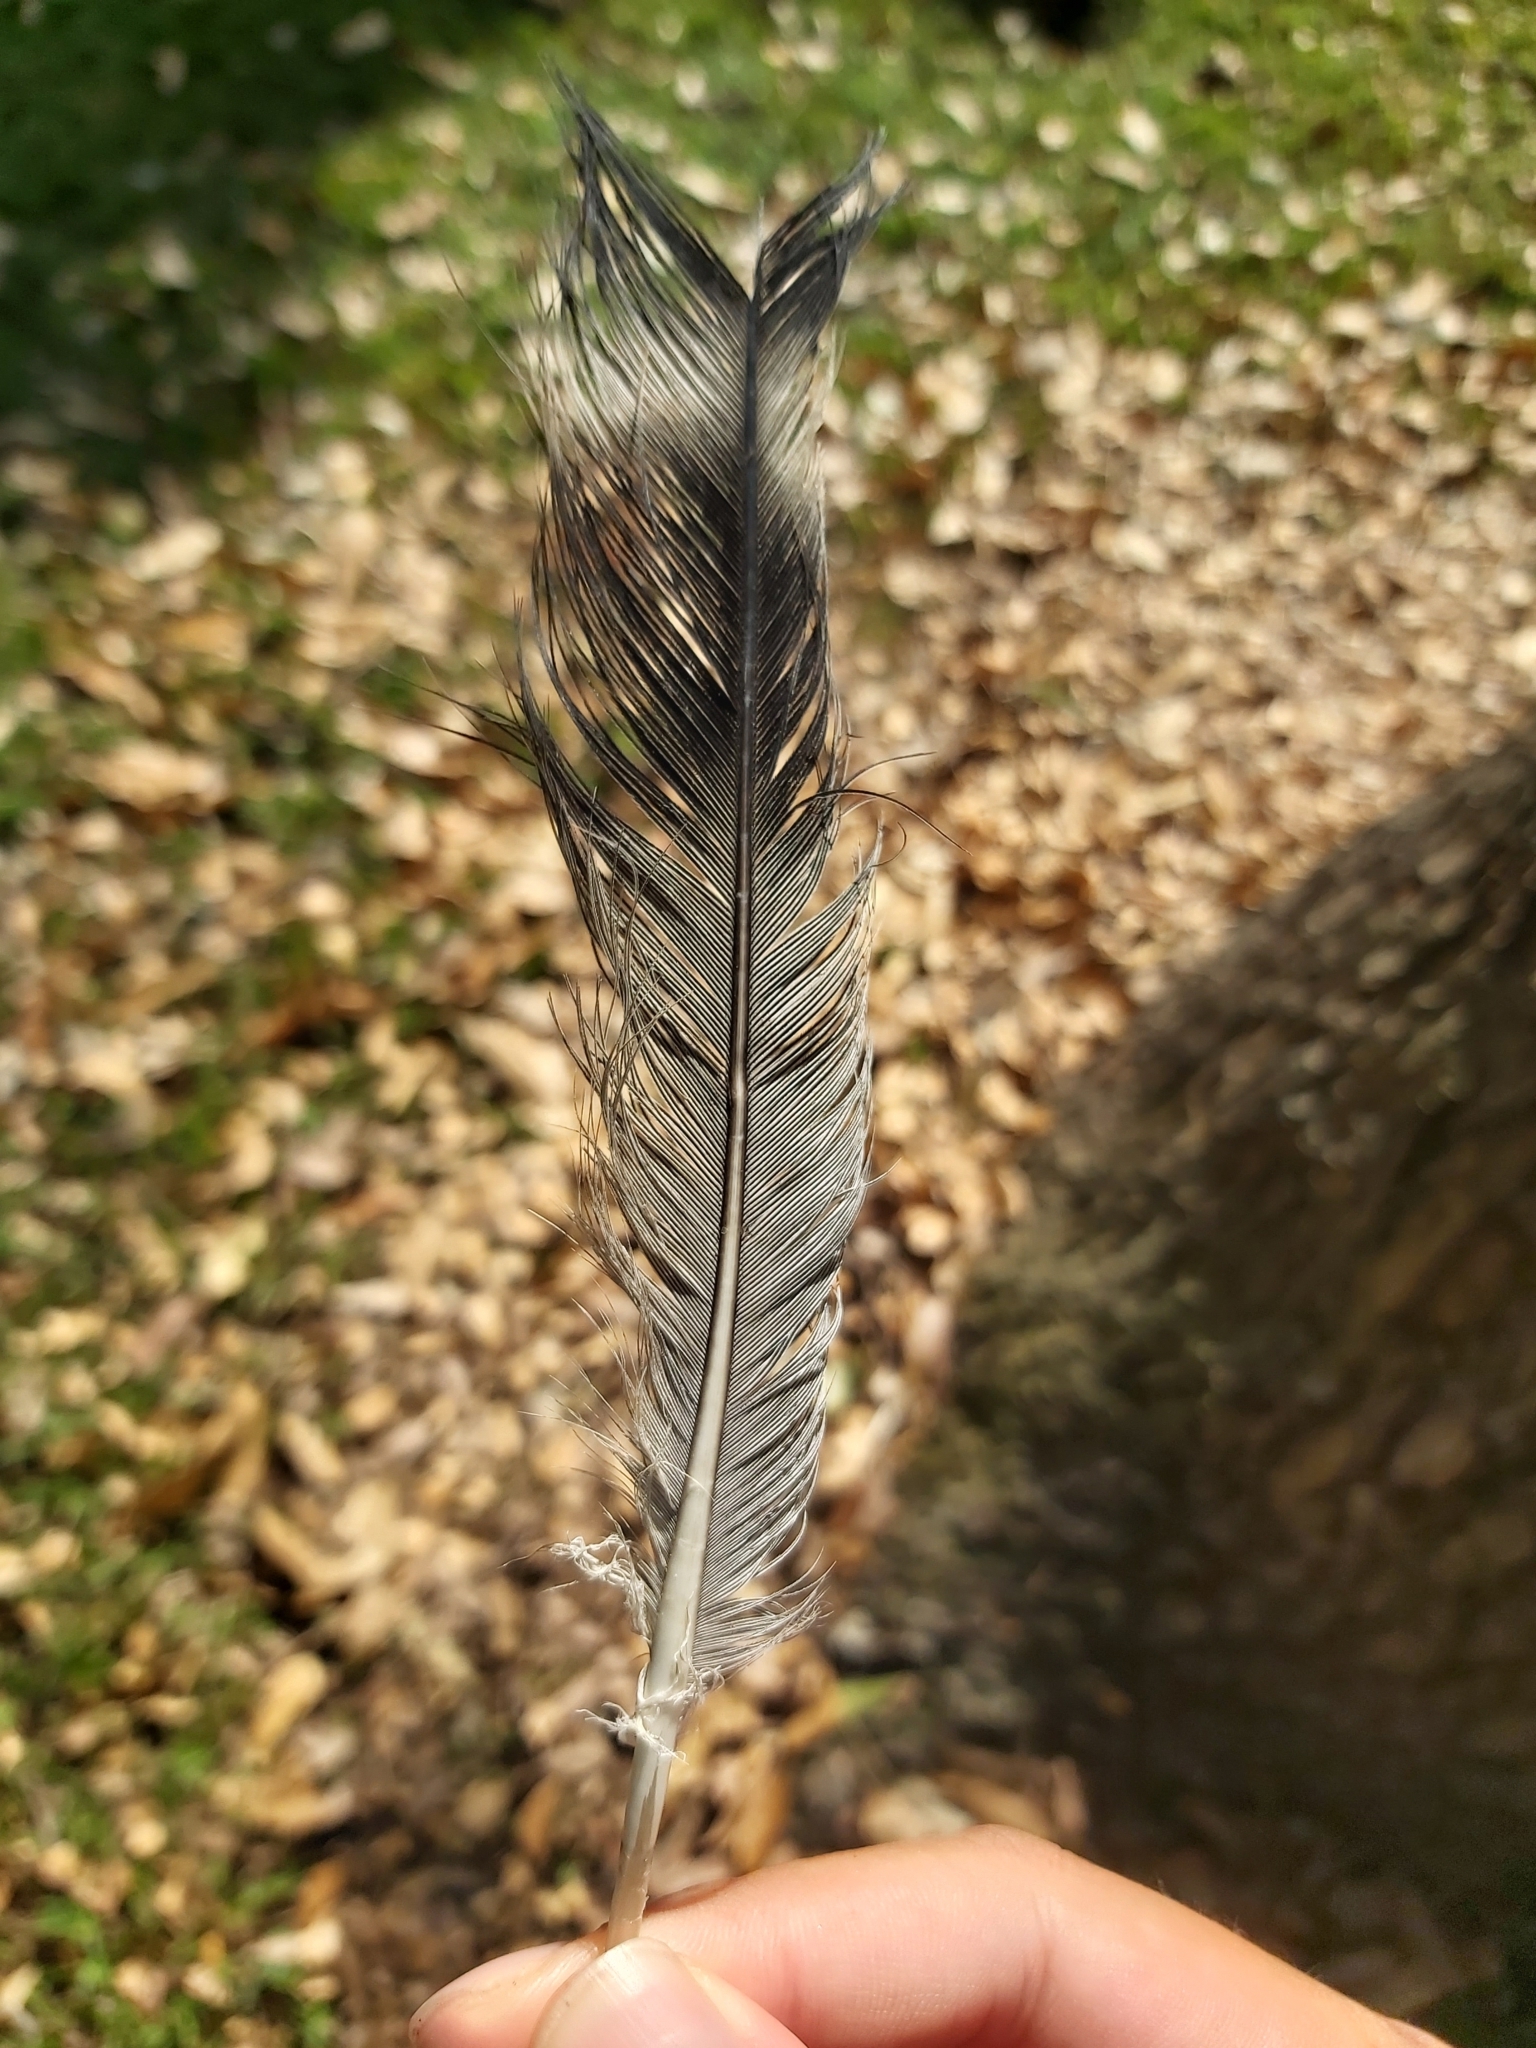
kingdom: Animalia
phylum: Chordata
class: Aves
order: Columbiformes
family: Columbidae
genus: Lopholaimus
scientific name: Lopholaimus antarcticus
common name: Topknot pigeon
